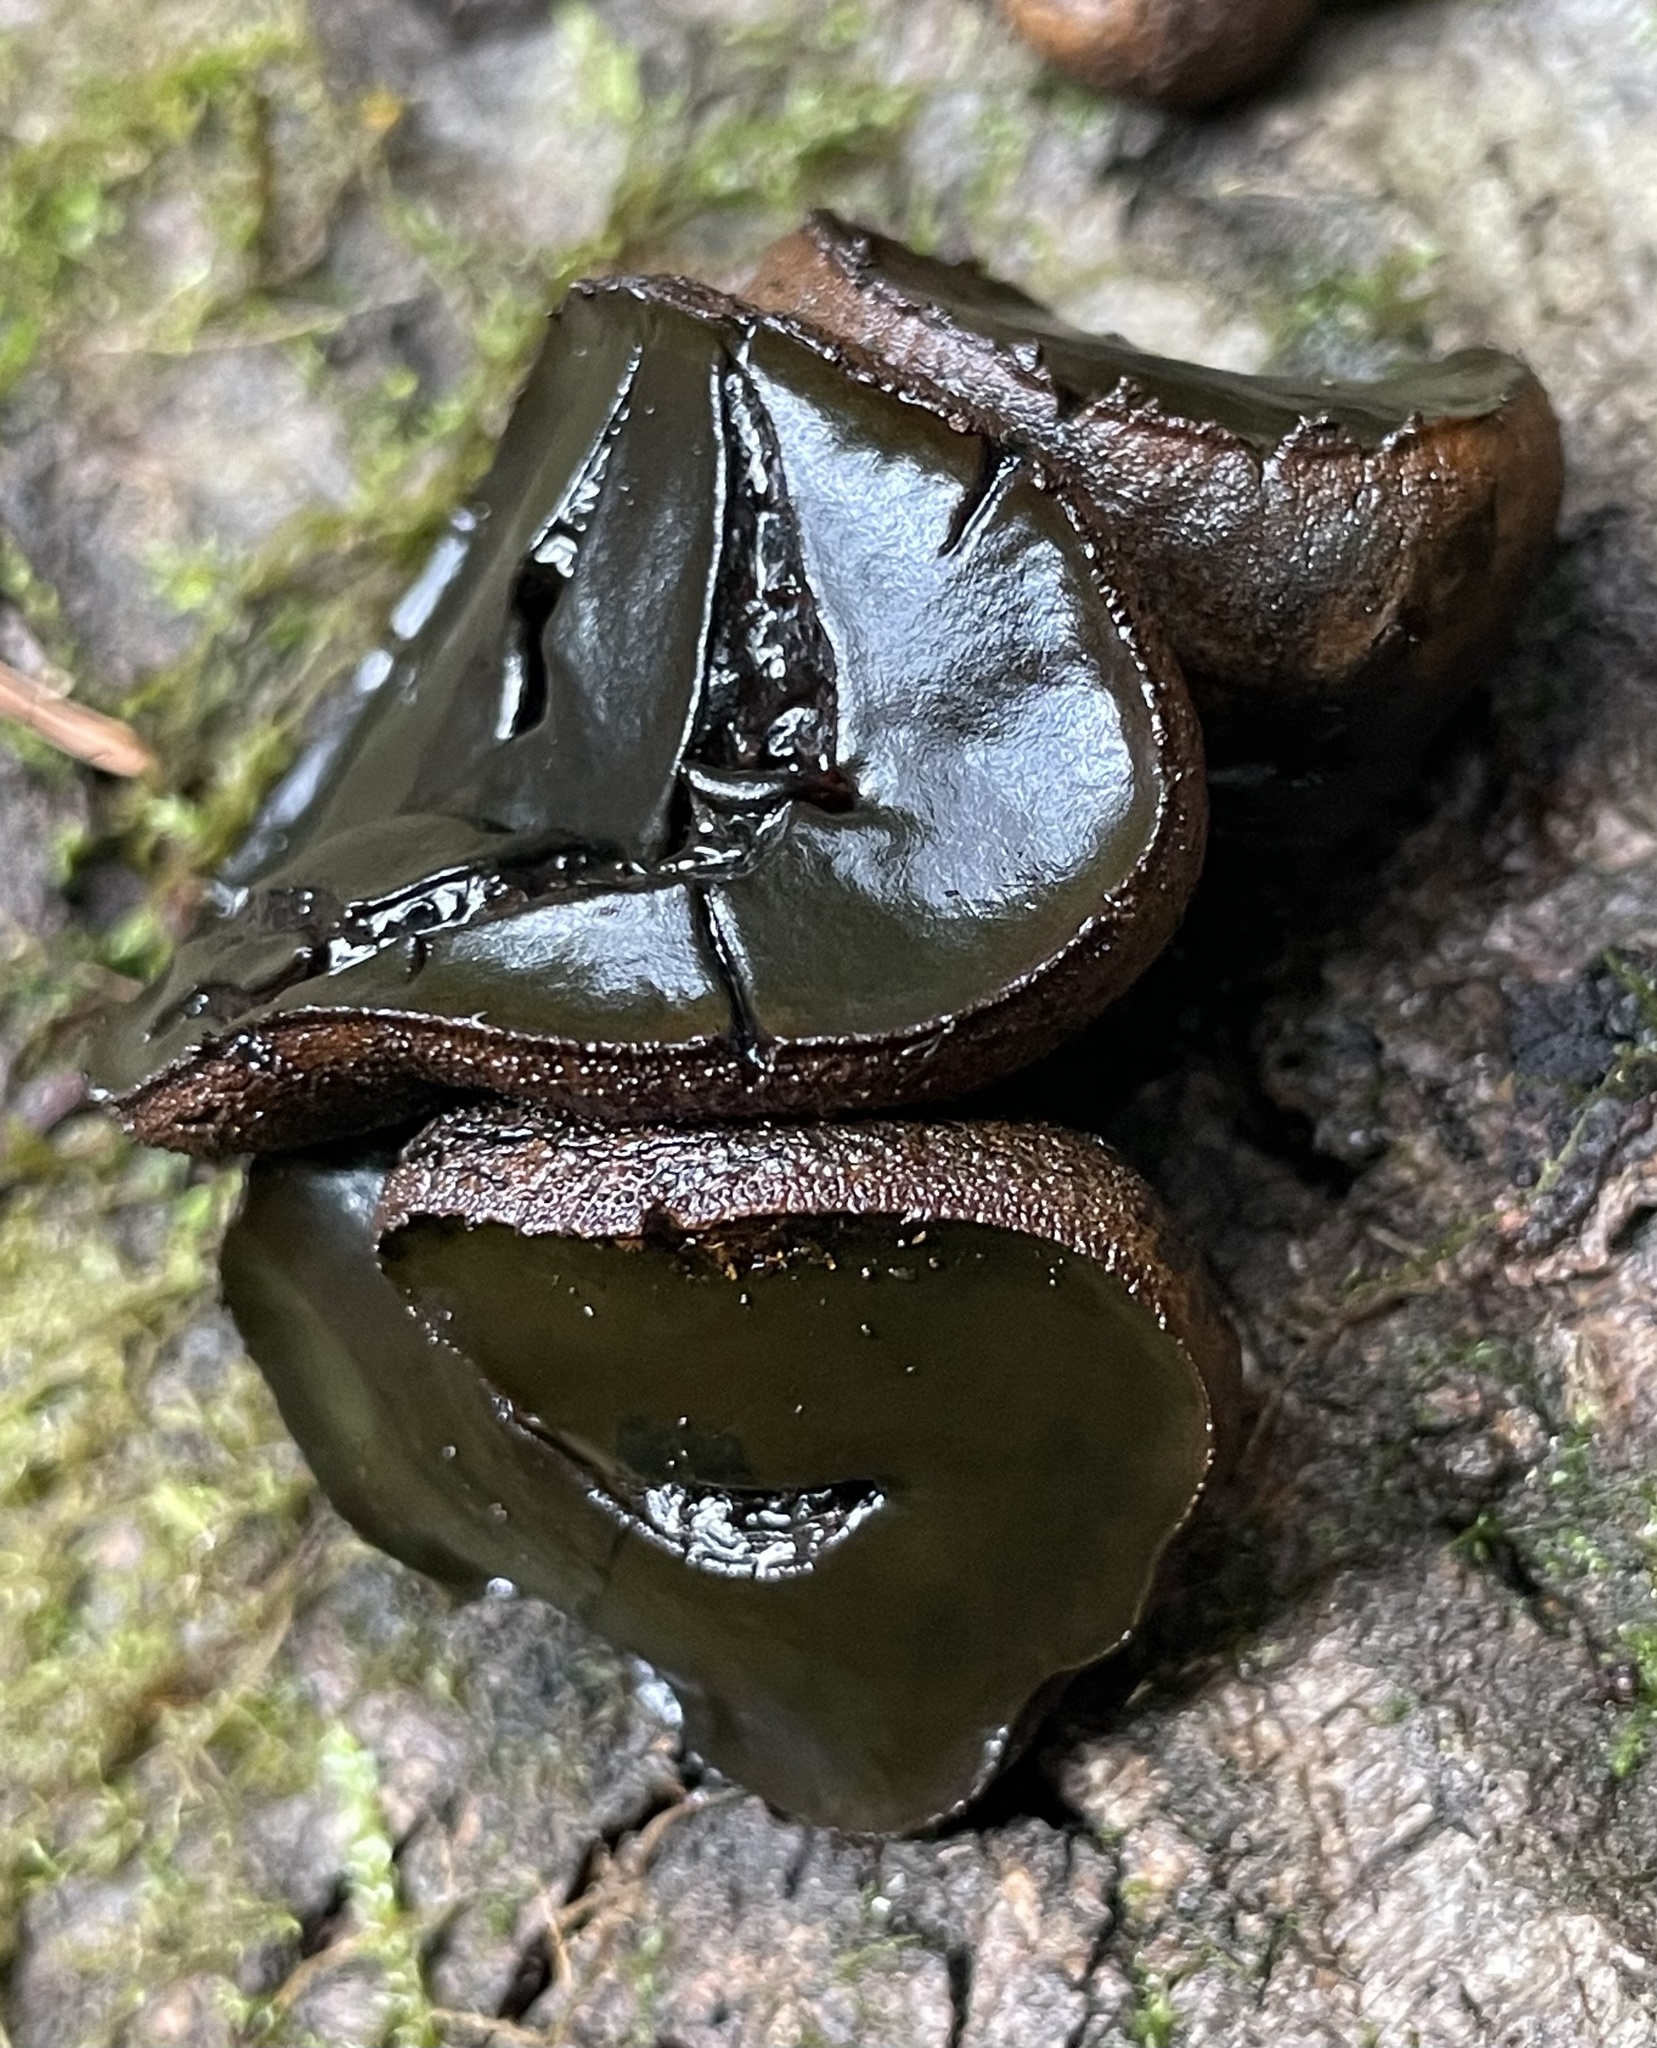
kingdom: Fungi
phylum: Ascomycota
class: Leotiomycetes
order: Phacidiales
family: Phacidiaceae
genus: Bulgaria
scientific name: Bulgaria inquinans
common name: Black bulgar
